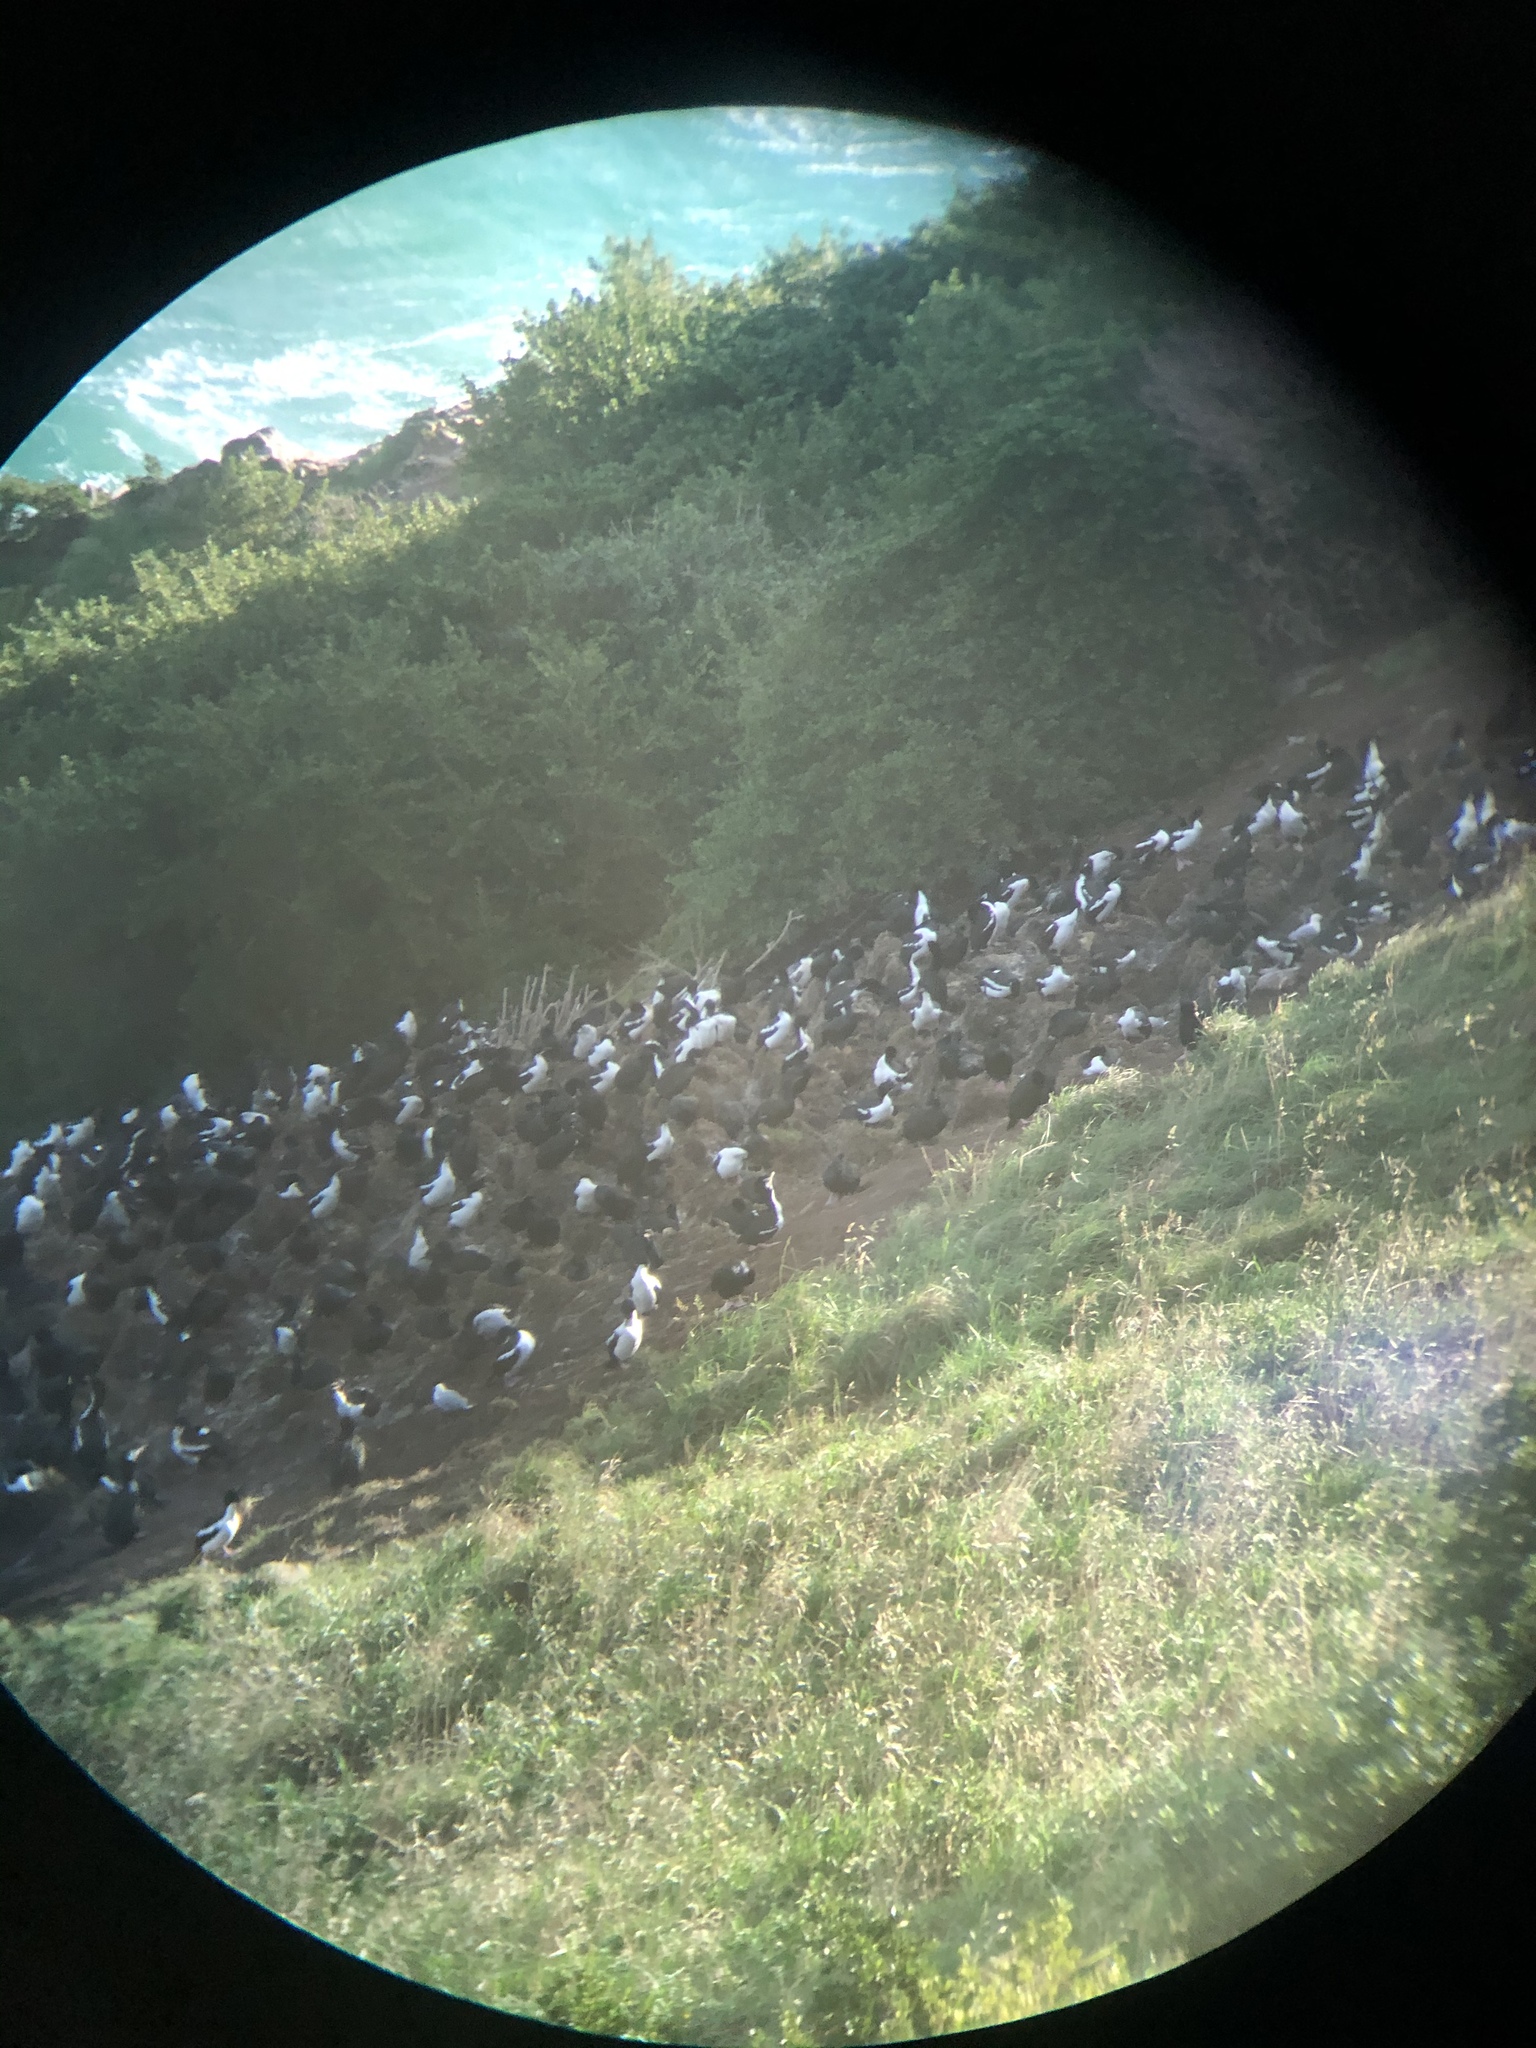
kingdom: Animalia
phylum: Chordata
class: Aves
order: Suliformes
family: Phalacrocoracidae
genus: Leucocarbo
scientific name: Leucocarbo chalconotus
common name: Stewart shag
